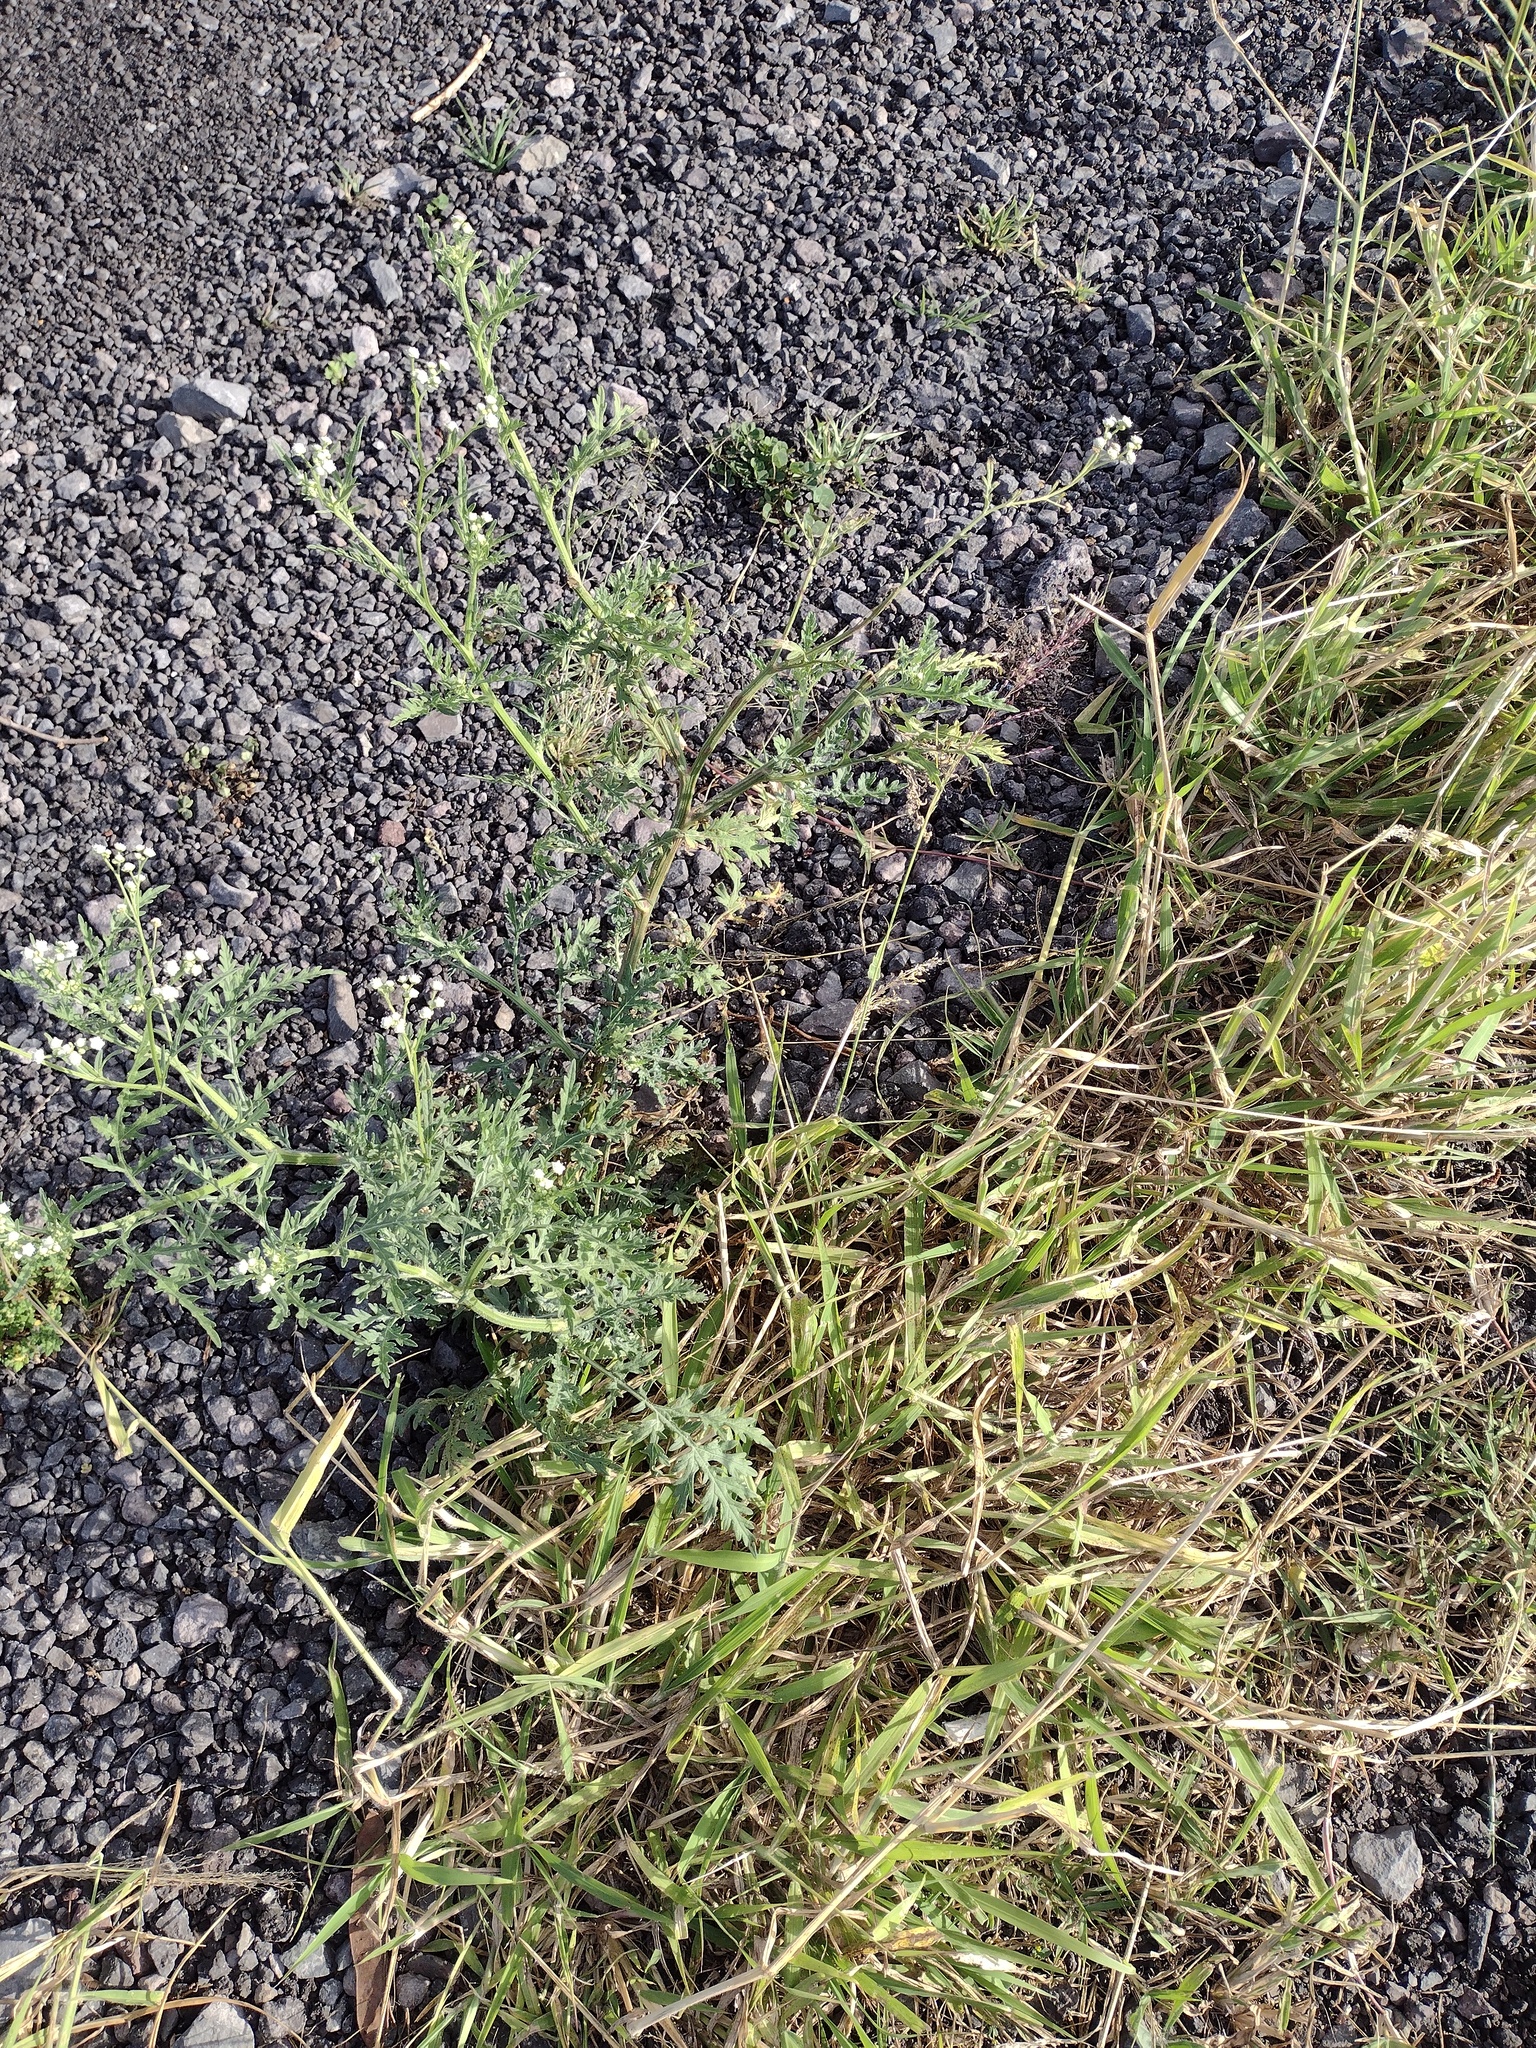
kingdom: Plantae
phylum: Tracheophyta
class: Magnoliopsida
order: Asterales
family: Asteraceae
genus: Parthenium
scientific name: Parthenium hysterophorus
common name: Santa maria feverfew
